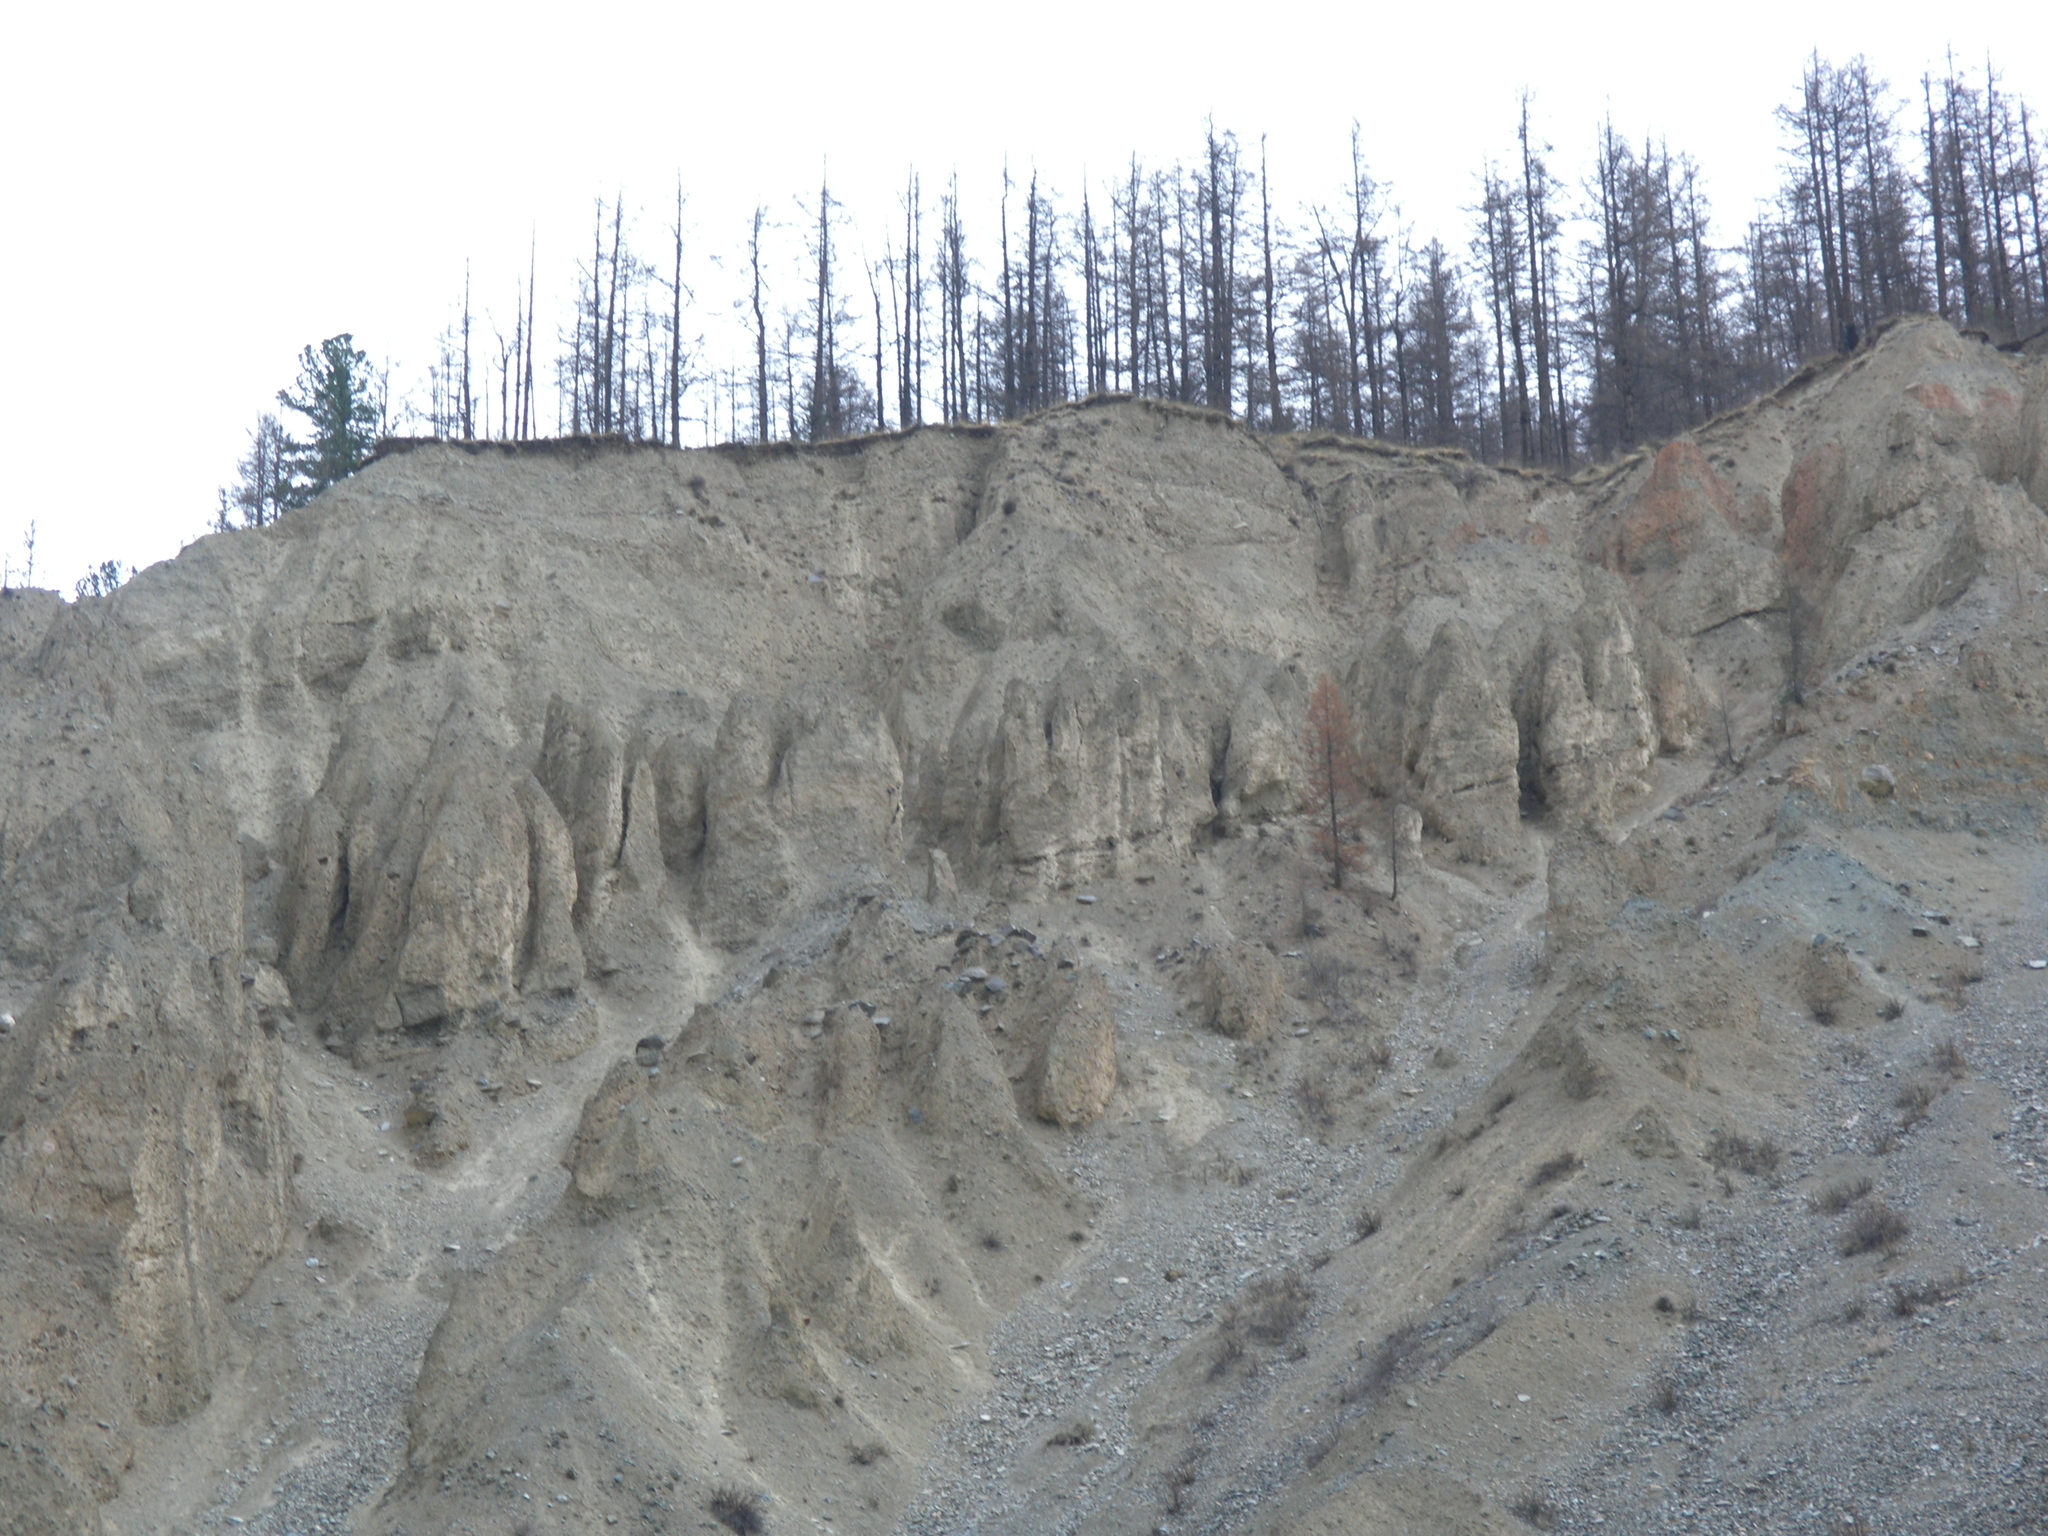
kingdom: Plantae
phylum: Tracheophyta
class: Pinopsida
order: Pinales
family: Pinaceae
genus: Picea
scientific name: Picea obovata
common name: Siberian spruce
